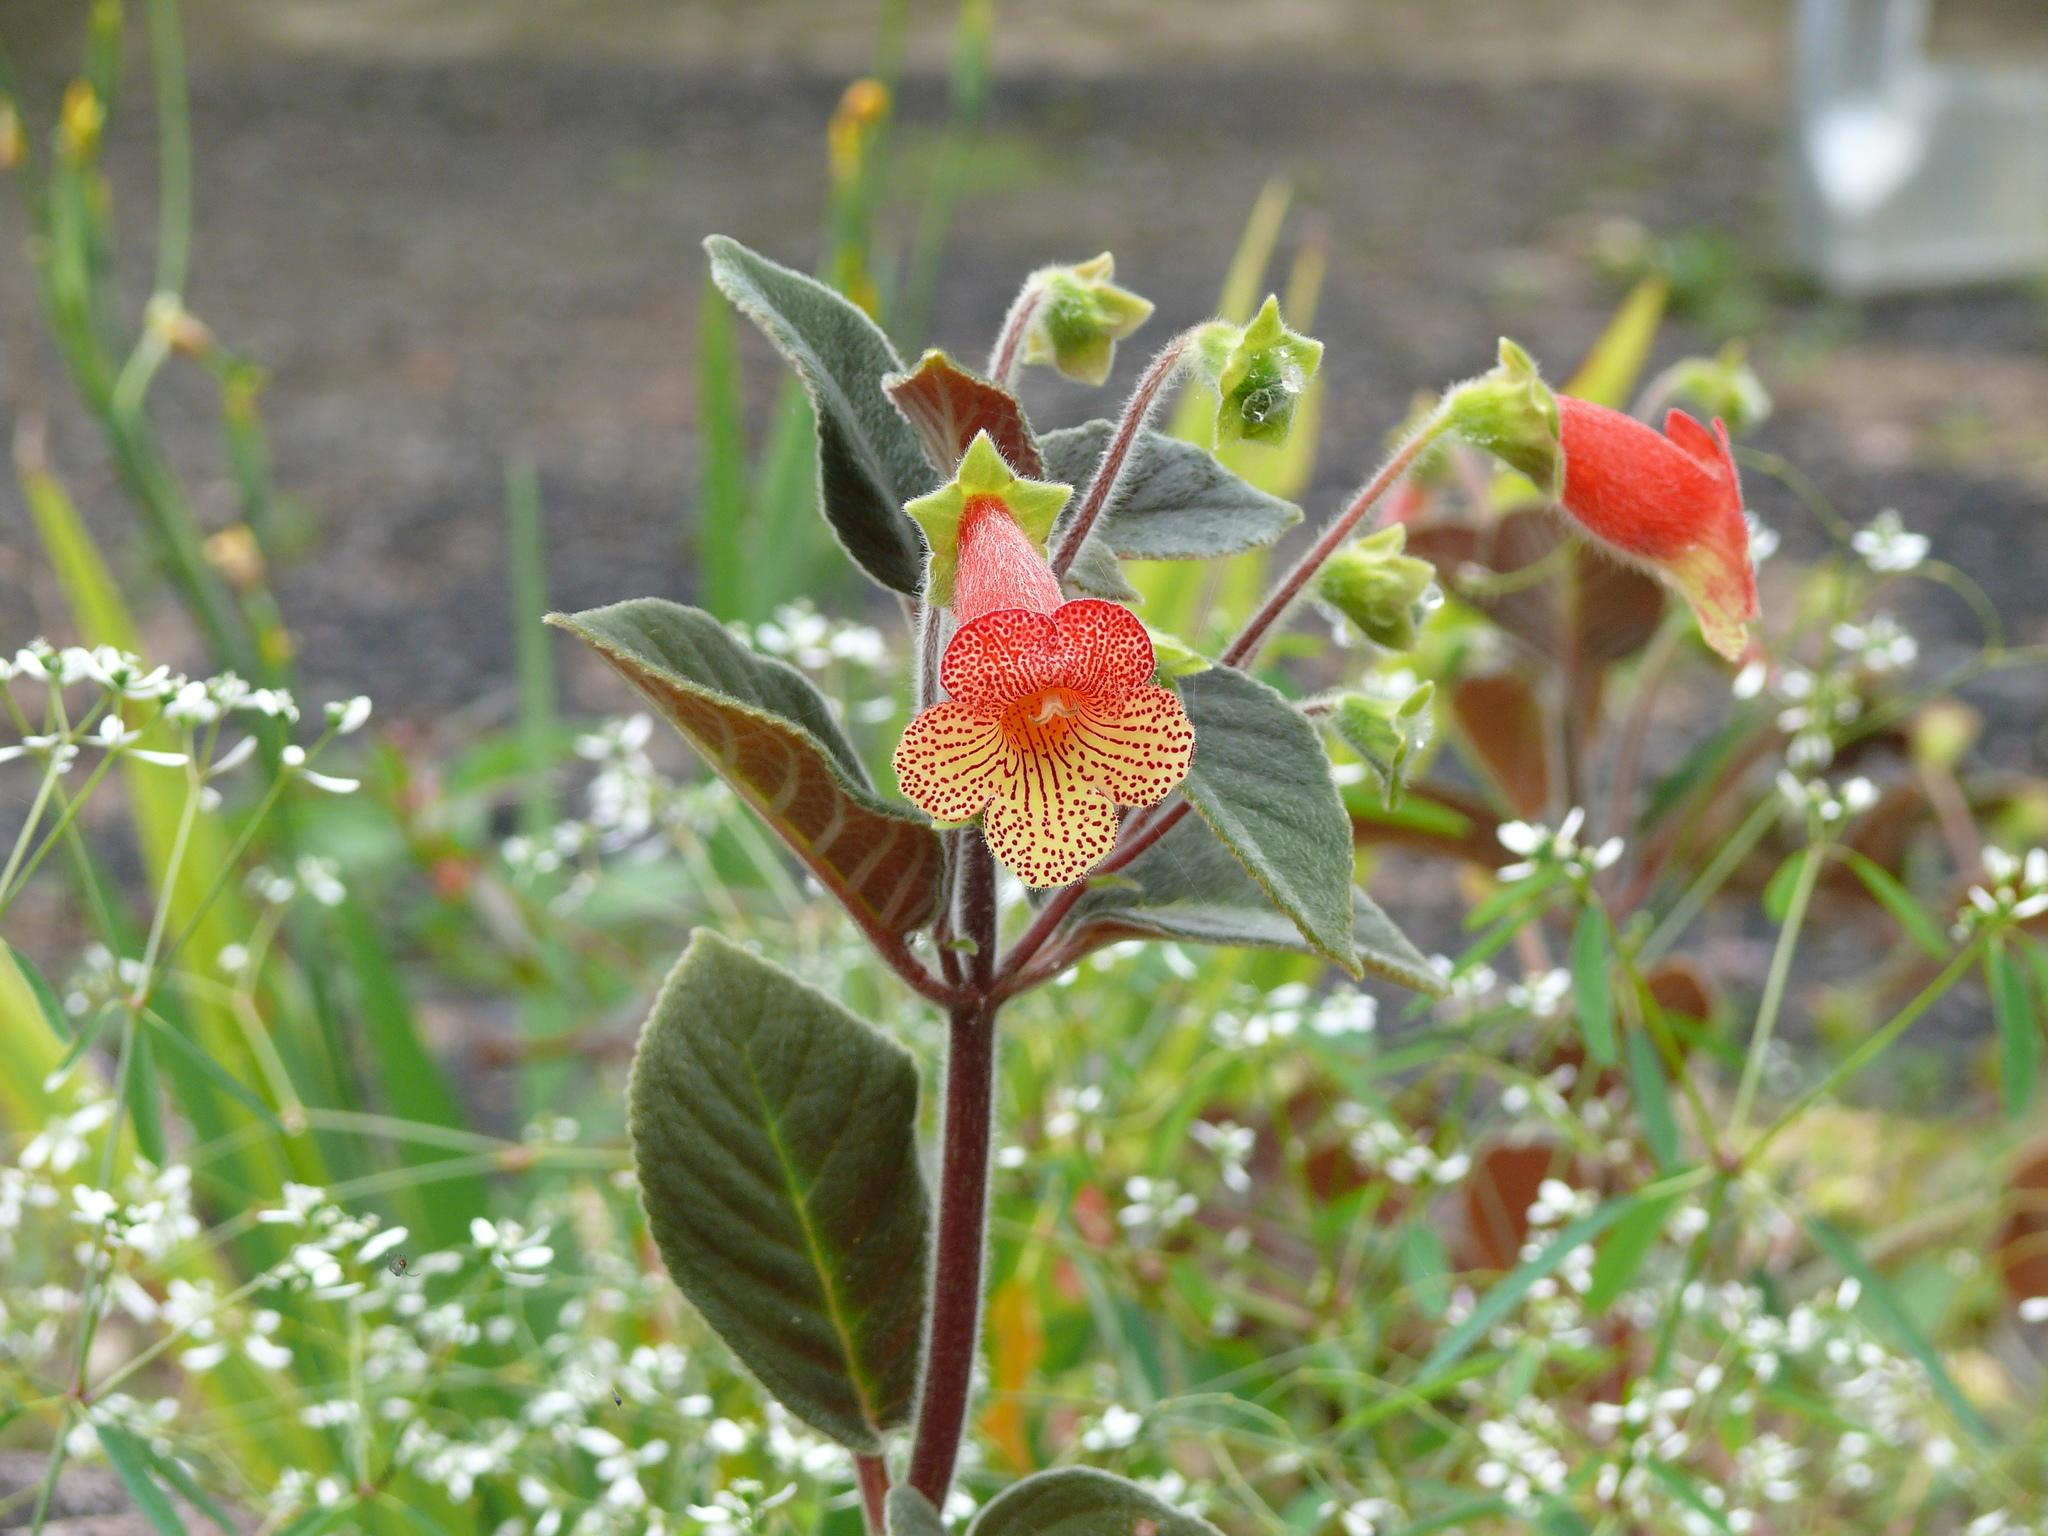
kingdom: Plantae
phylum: Tracheophyta
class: Magnoliopsida
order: Lamiales
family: Gesneriaceae
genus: Kohleria
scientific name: Kohleria amabilis
